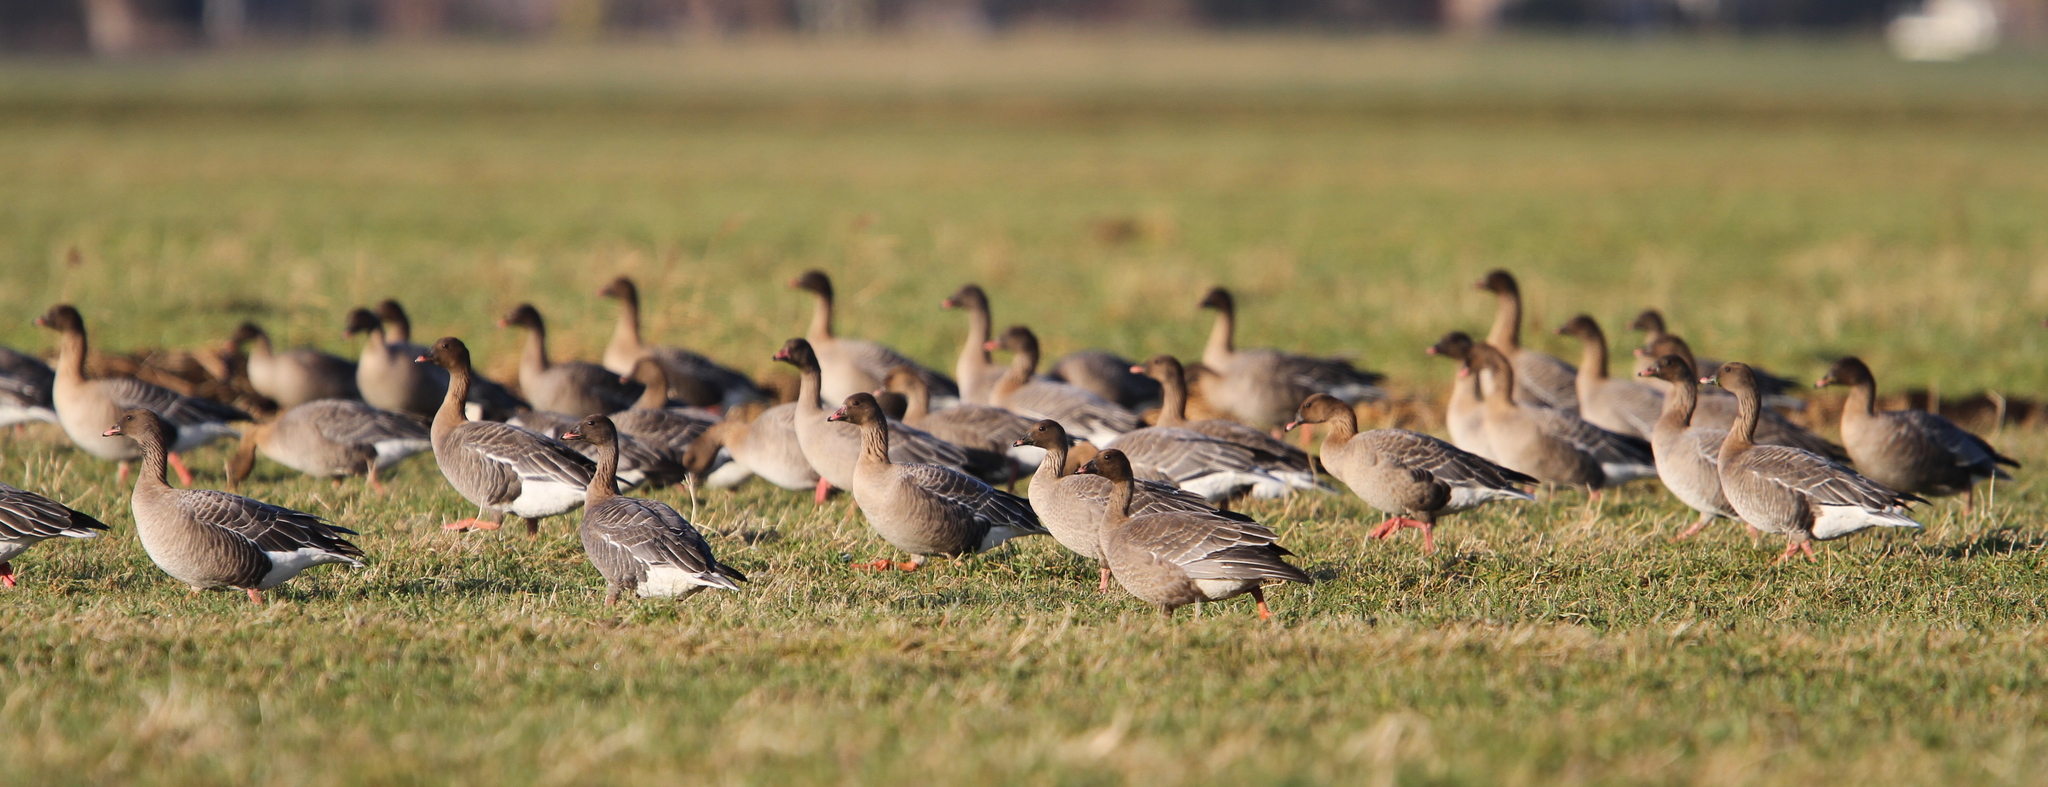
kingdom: Animalia
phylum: Chordata
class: Aves
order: Anseriformes
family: Anatidae
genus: Anser
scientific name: Anser brachyrhynchus
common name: Pink-footed goose
